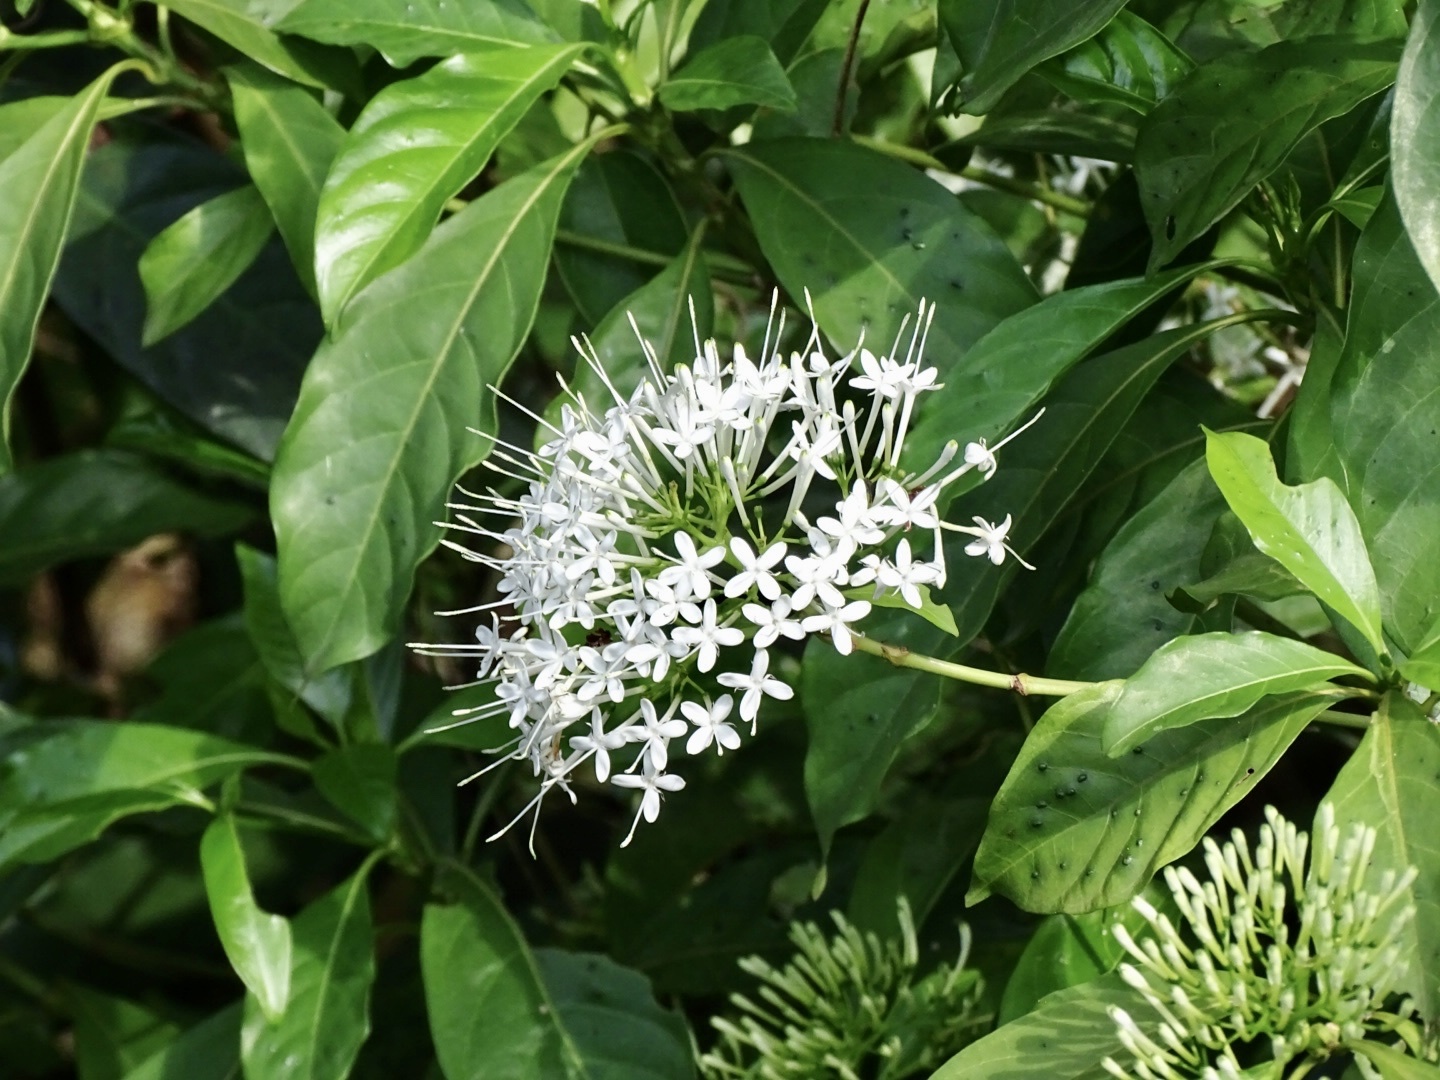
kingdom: Plantae
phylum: Tracheophyta
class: Magnoliopsida
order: Gentianales
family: Rubiaceae
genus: Pavetta
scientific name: Pavetta hongkongensis
